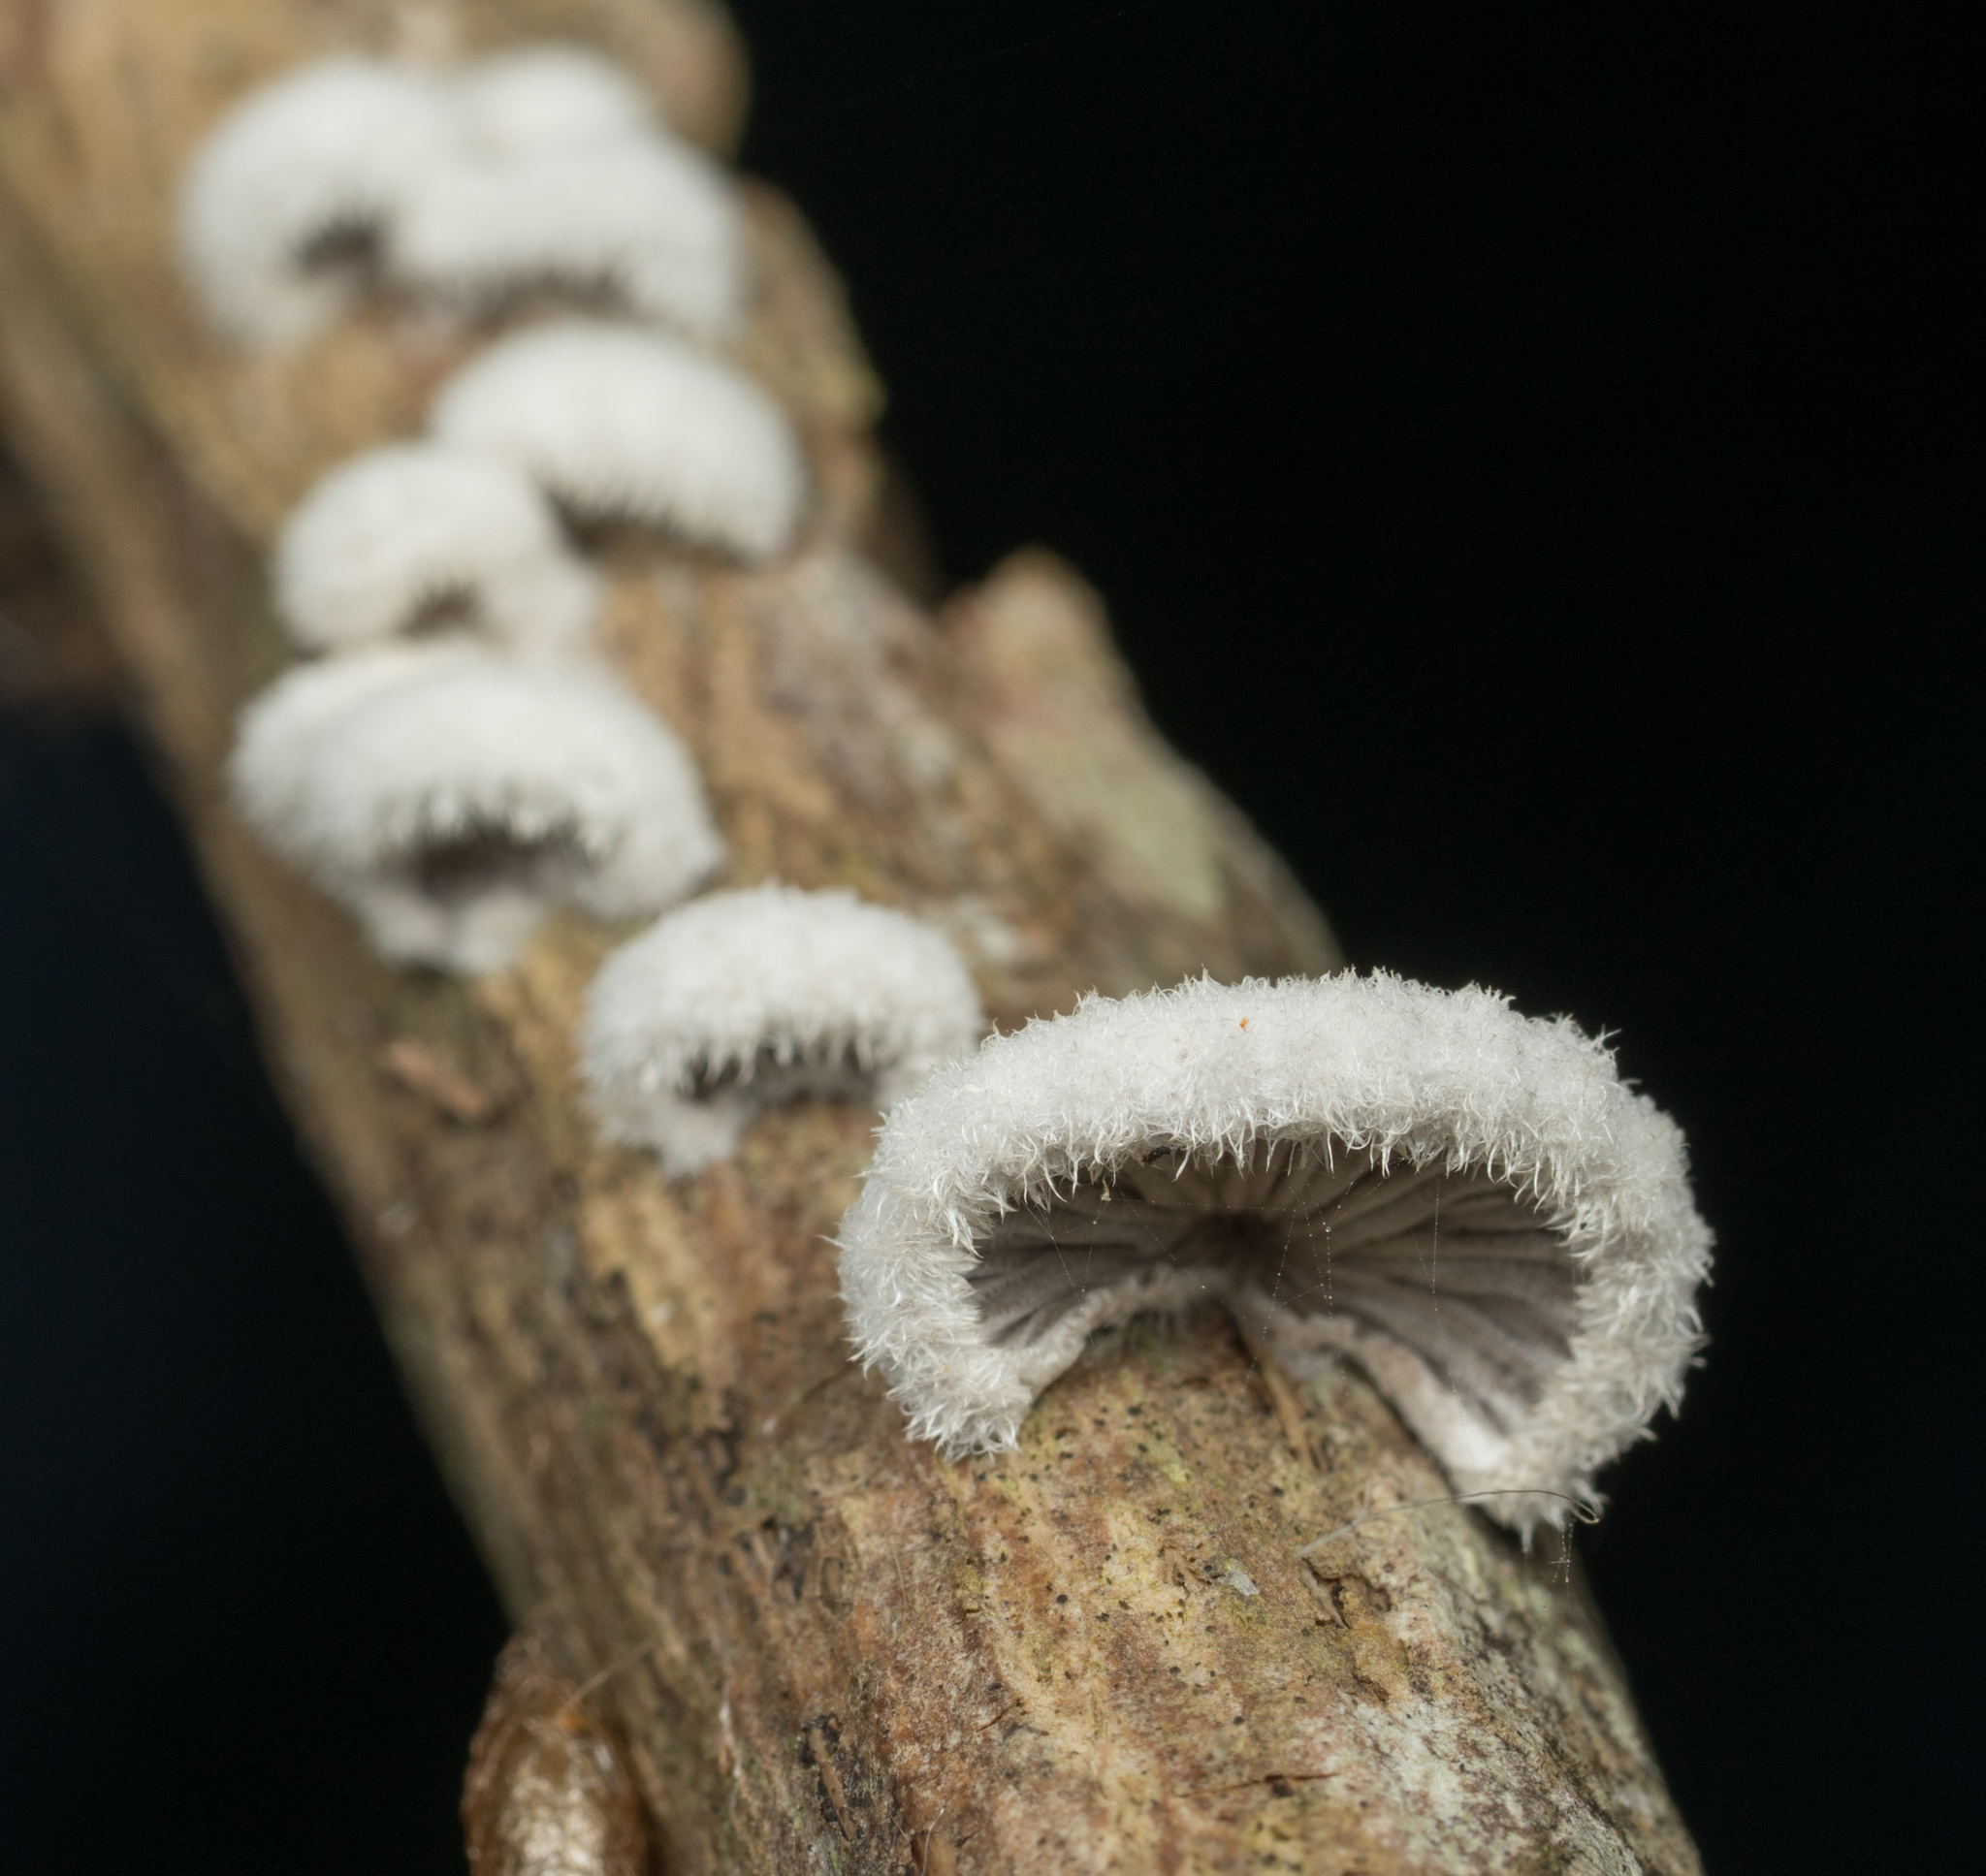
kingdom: Fungi
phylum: Basidiomycota
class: Agaricomycetes
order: Agaricales
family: Schizophyllaceae
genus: Schizophyllum
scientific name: Schizophyllum commune
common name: Common porecrust
